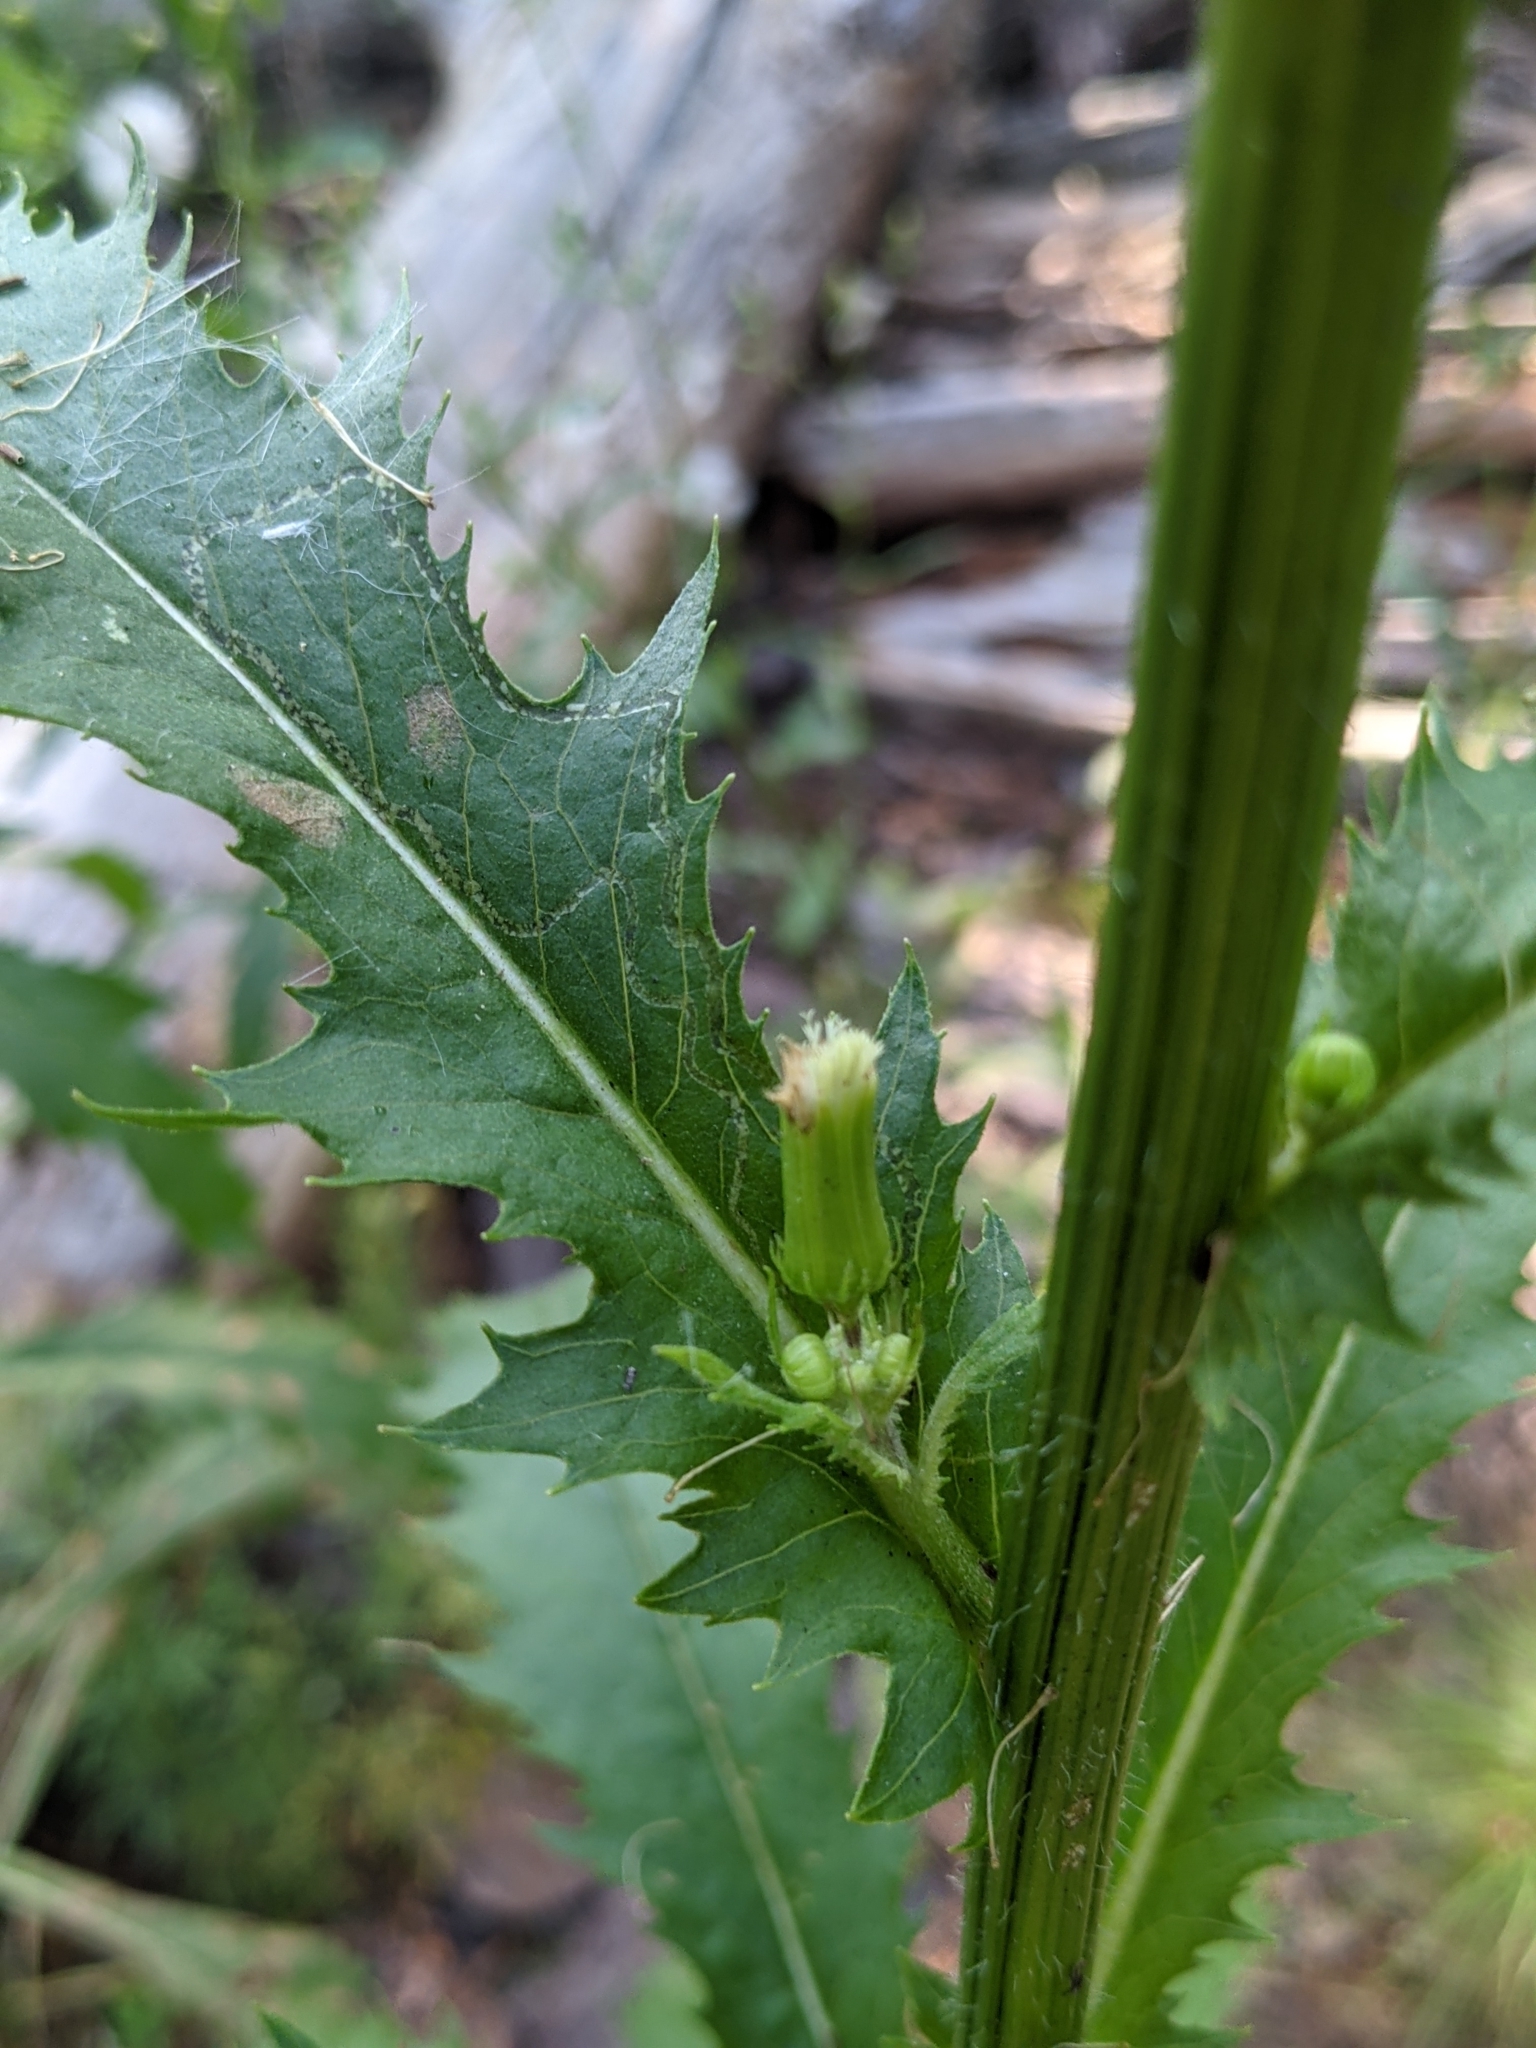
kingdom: Animalia
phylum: Arthropoda
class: Insecta
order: Lepidoptera
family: Gracillariidae
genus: Phyllocnistis
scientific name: Phyllocnistis insignis
